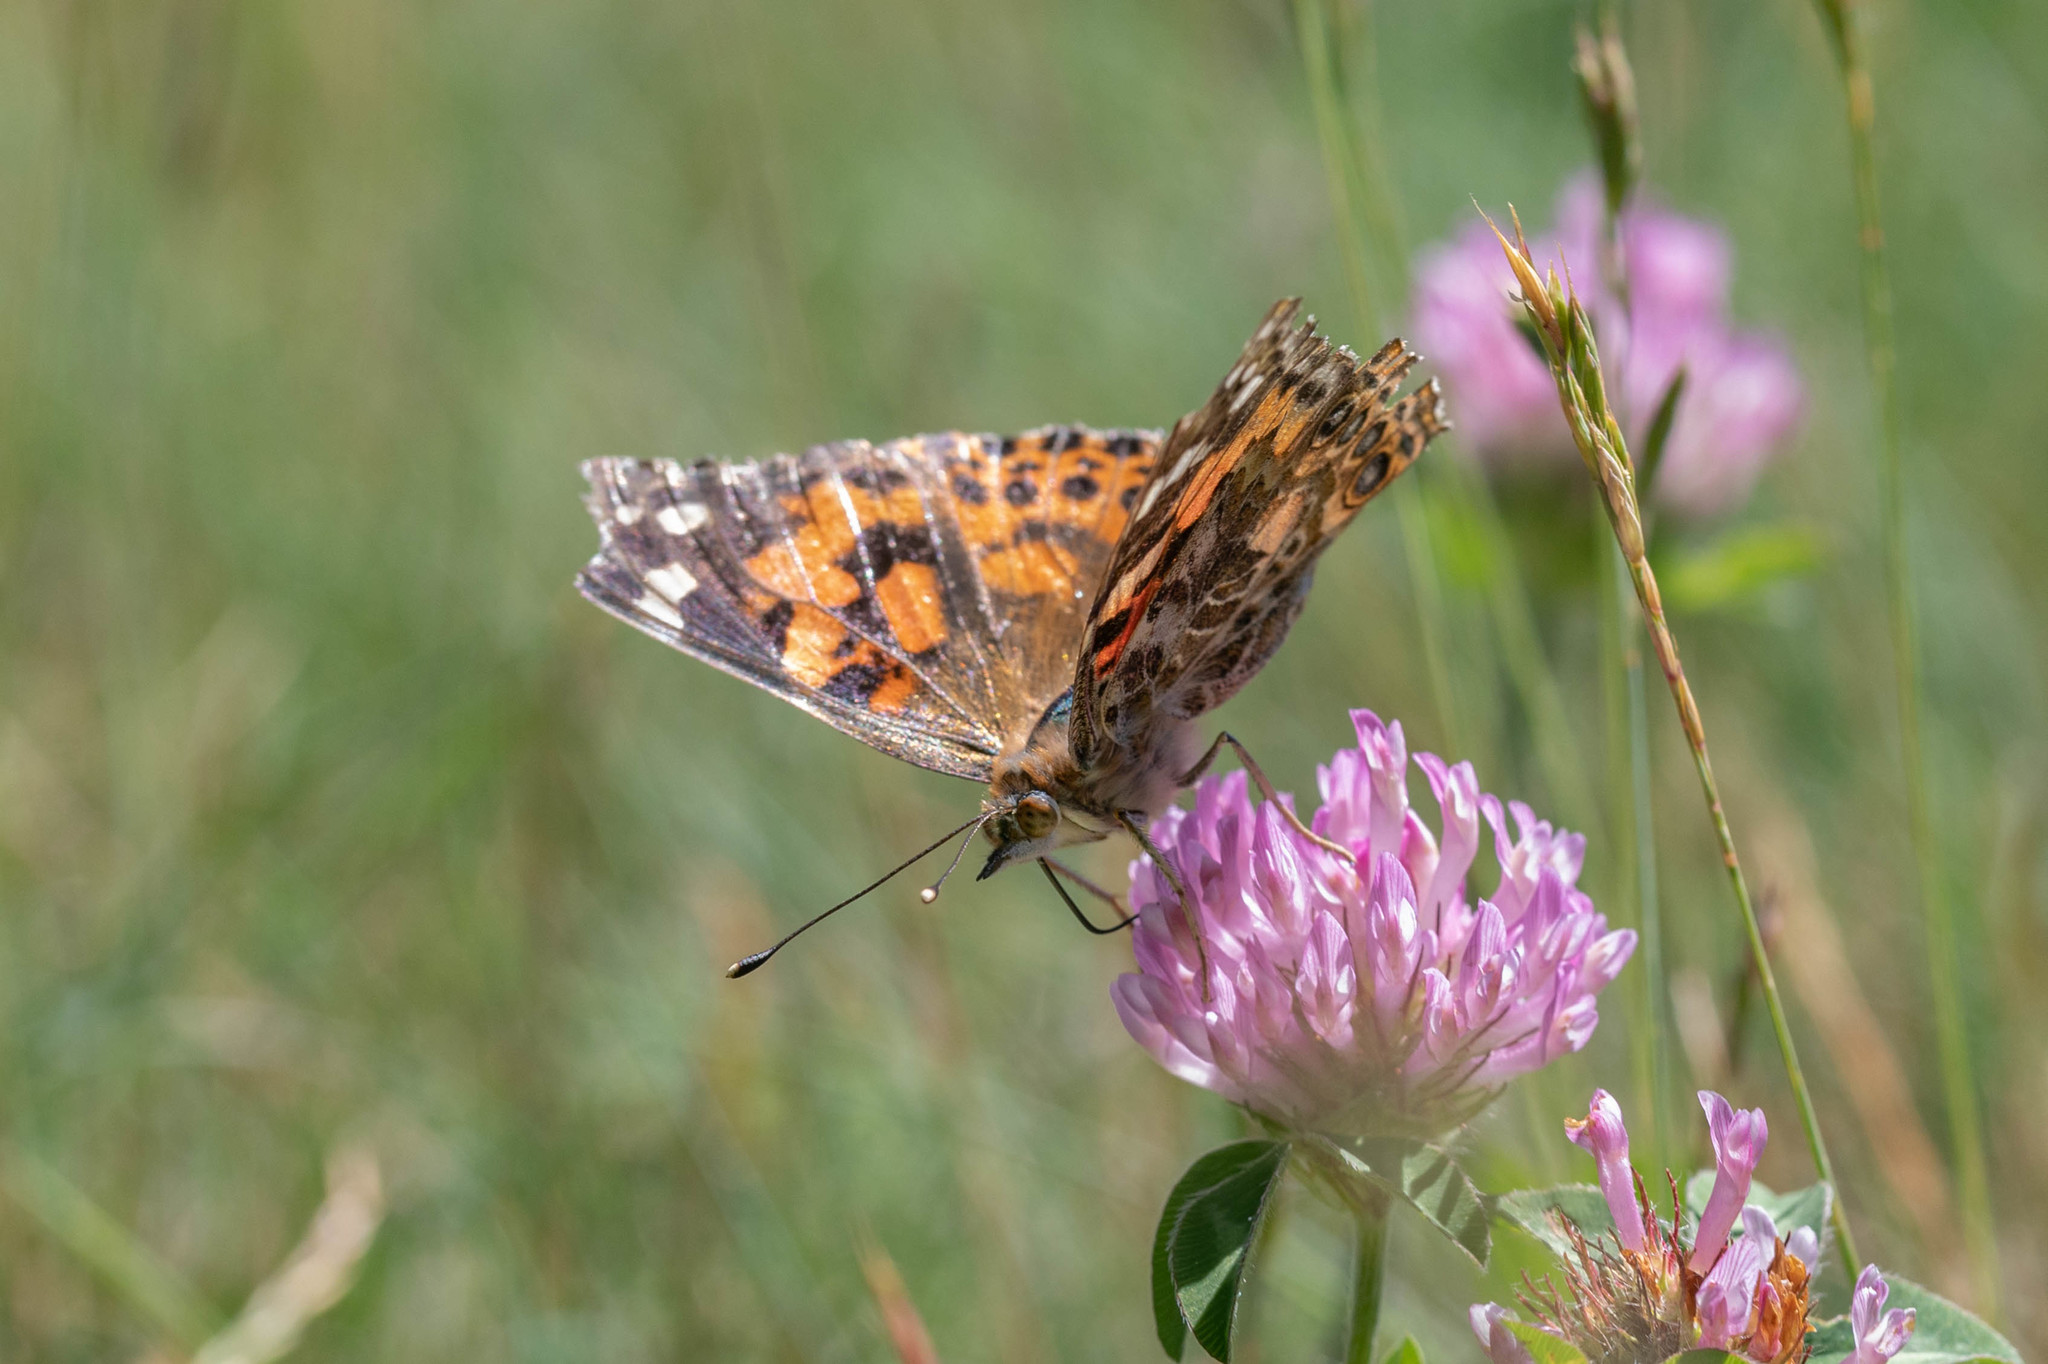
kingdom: Animalia
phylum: Arthropoda
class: Insecta
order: Lepidoptera
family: Nymphalidae
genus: Vanessa
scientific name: Vanessa cardui
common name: Painted lady
